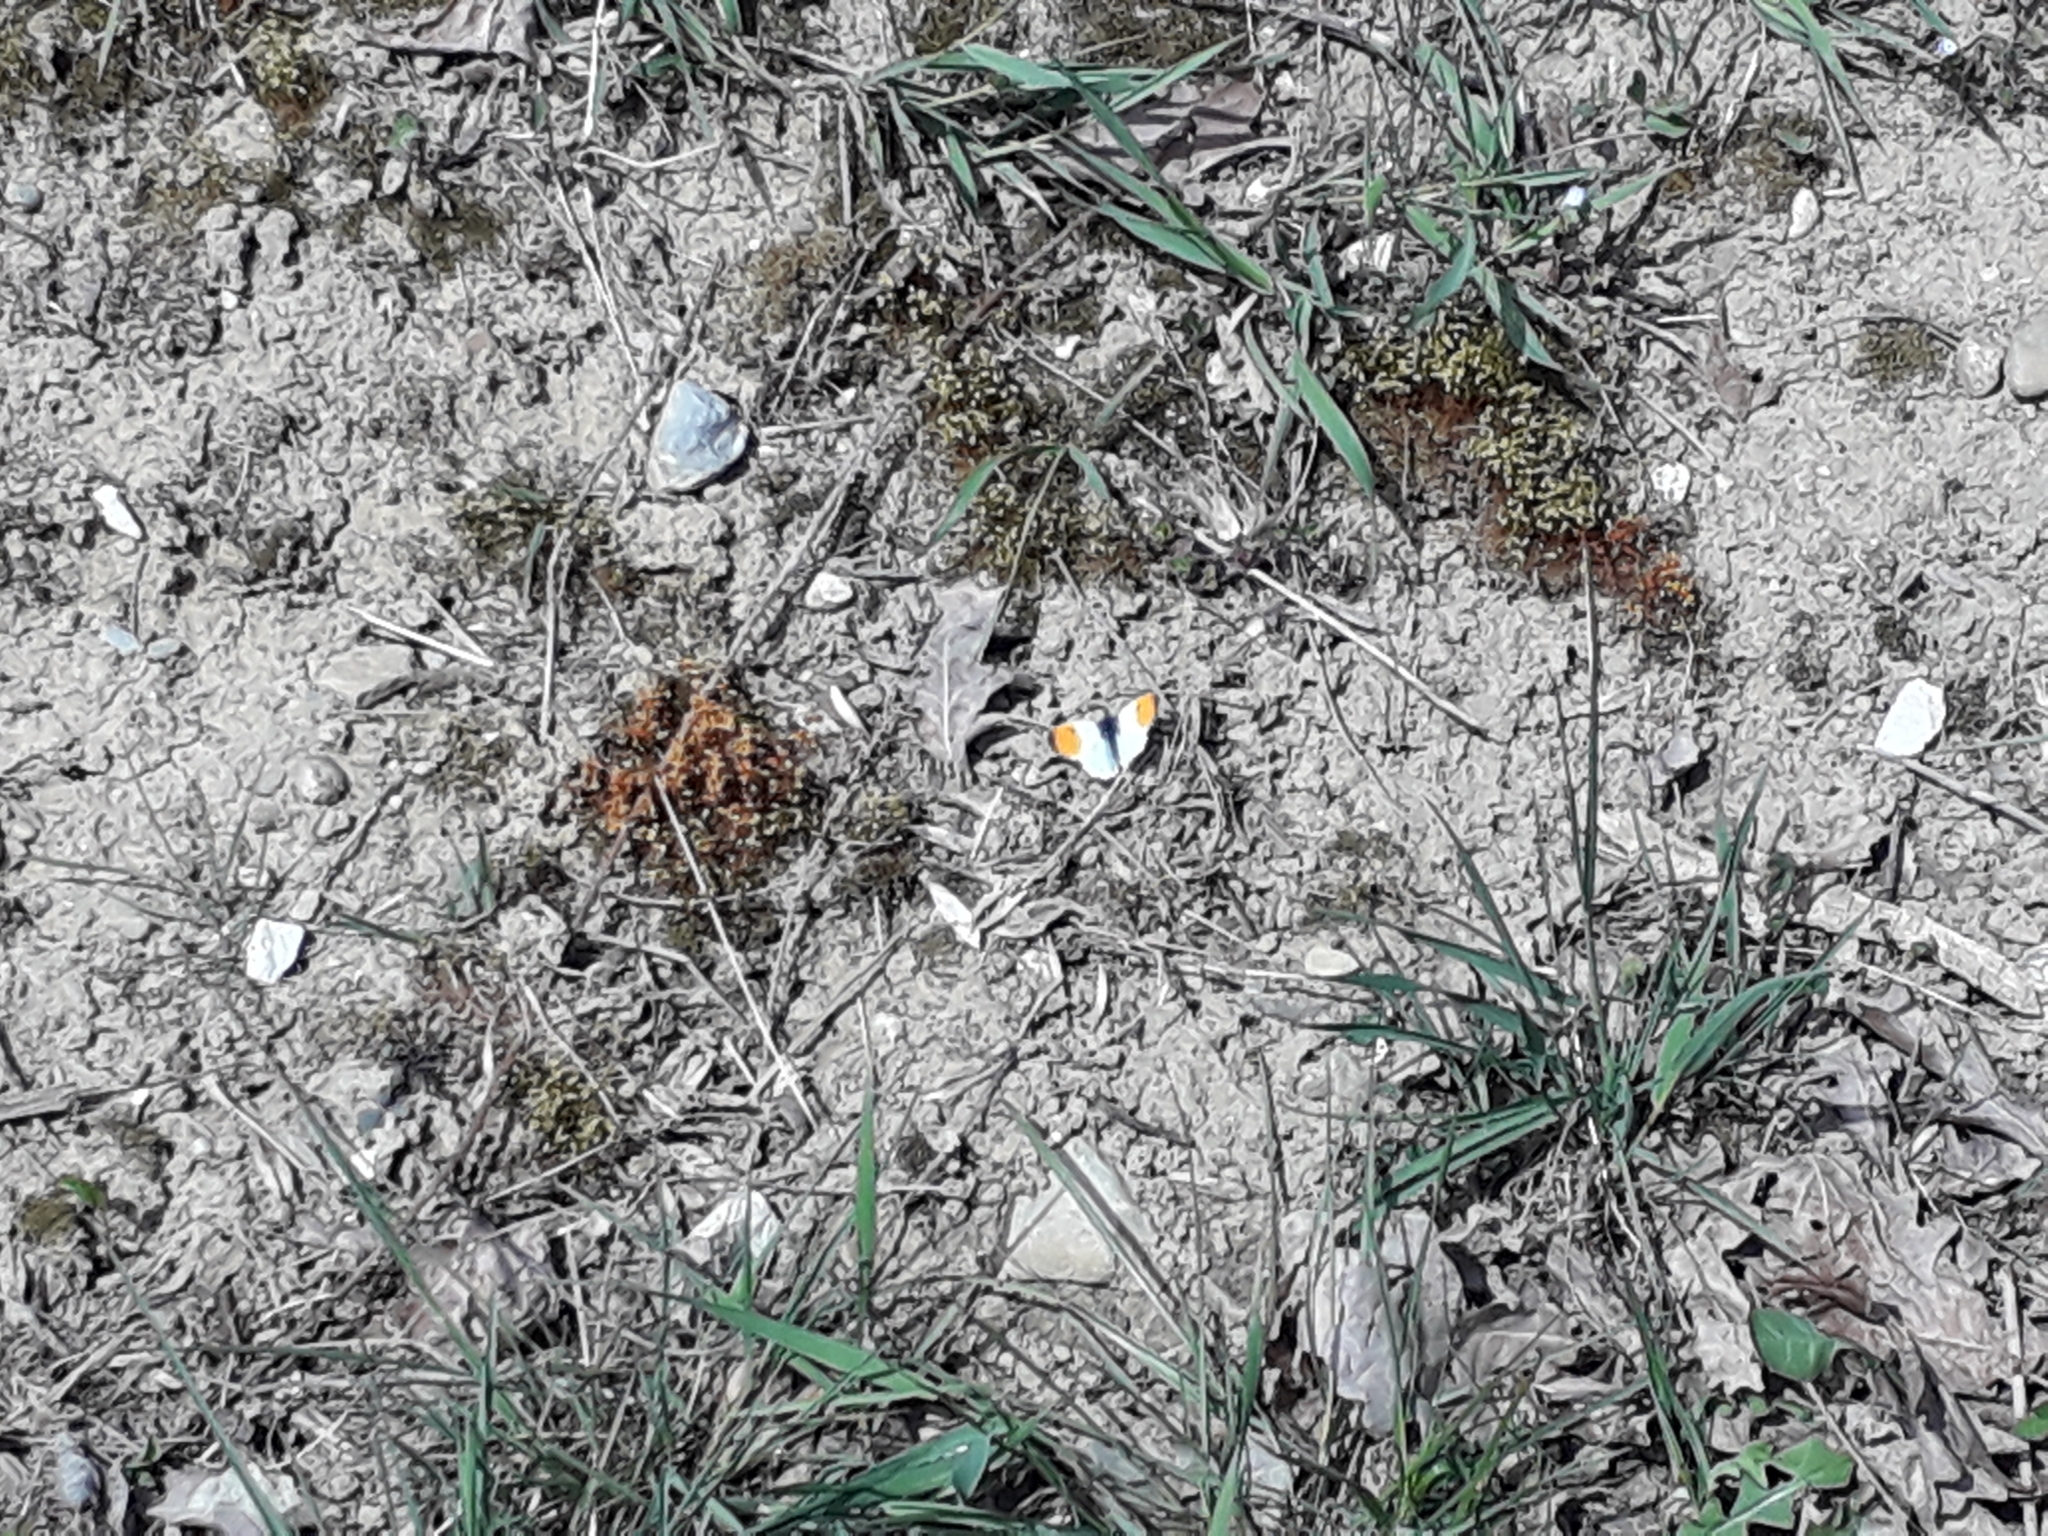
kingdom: Animalia
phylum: Arthropoda
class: Insecta
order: Lepidoptera
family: Pieridae
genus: Anthocharis
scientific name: Anthocharis cardamines
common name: Orange-tip
